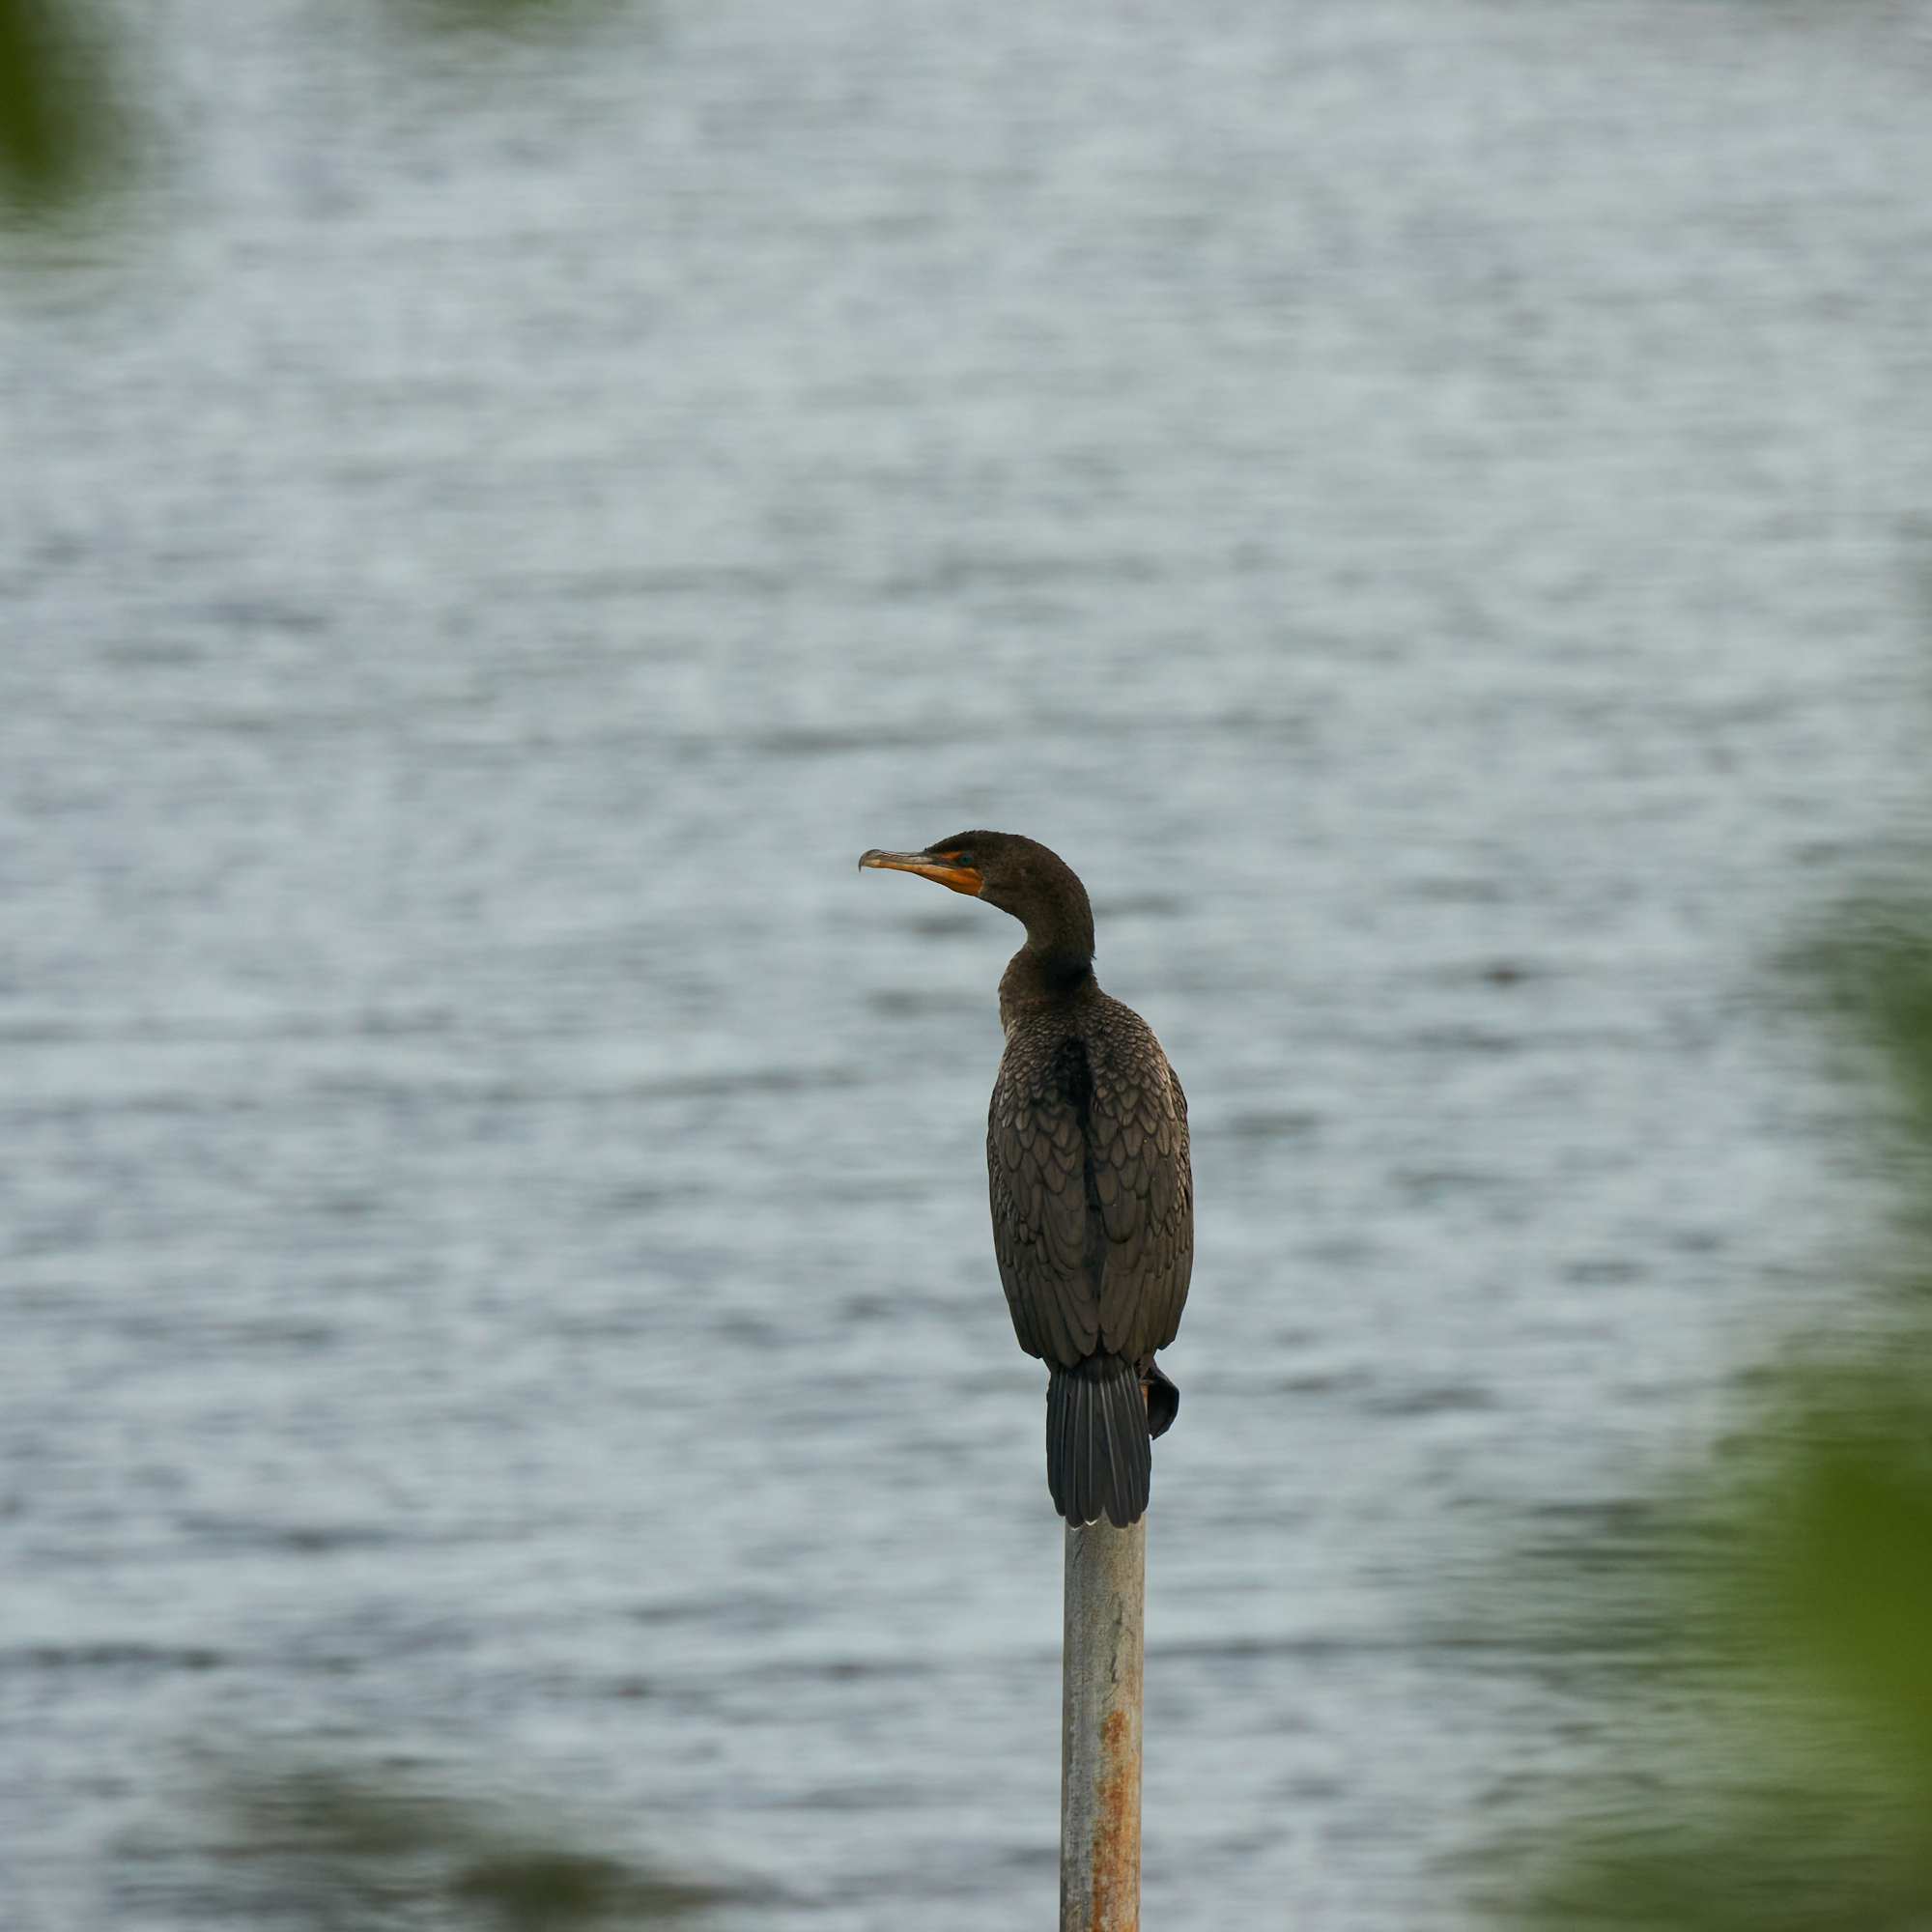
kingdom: Animalia
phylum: Chordata
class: Aves
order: Suliformes
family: Phalacrocoracidae
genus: Phalacrocorax
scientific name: Phalacrocorax auritus
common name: Double-crested cormorant
